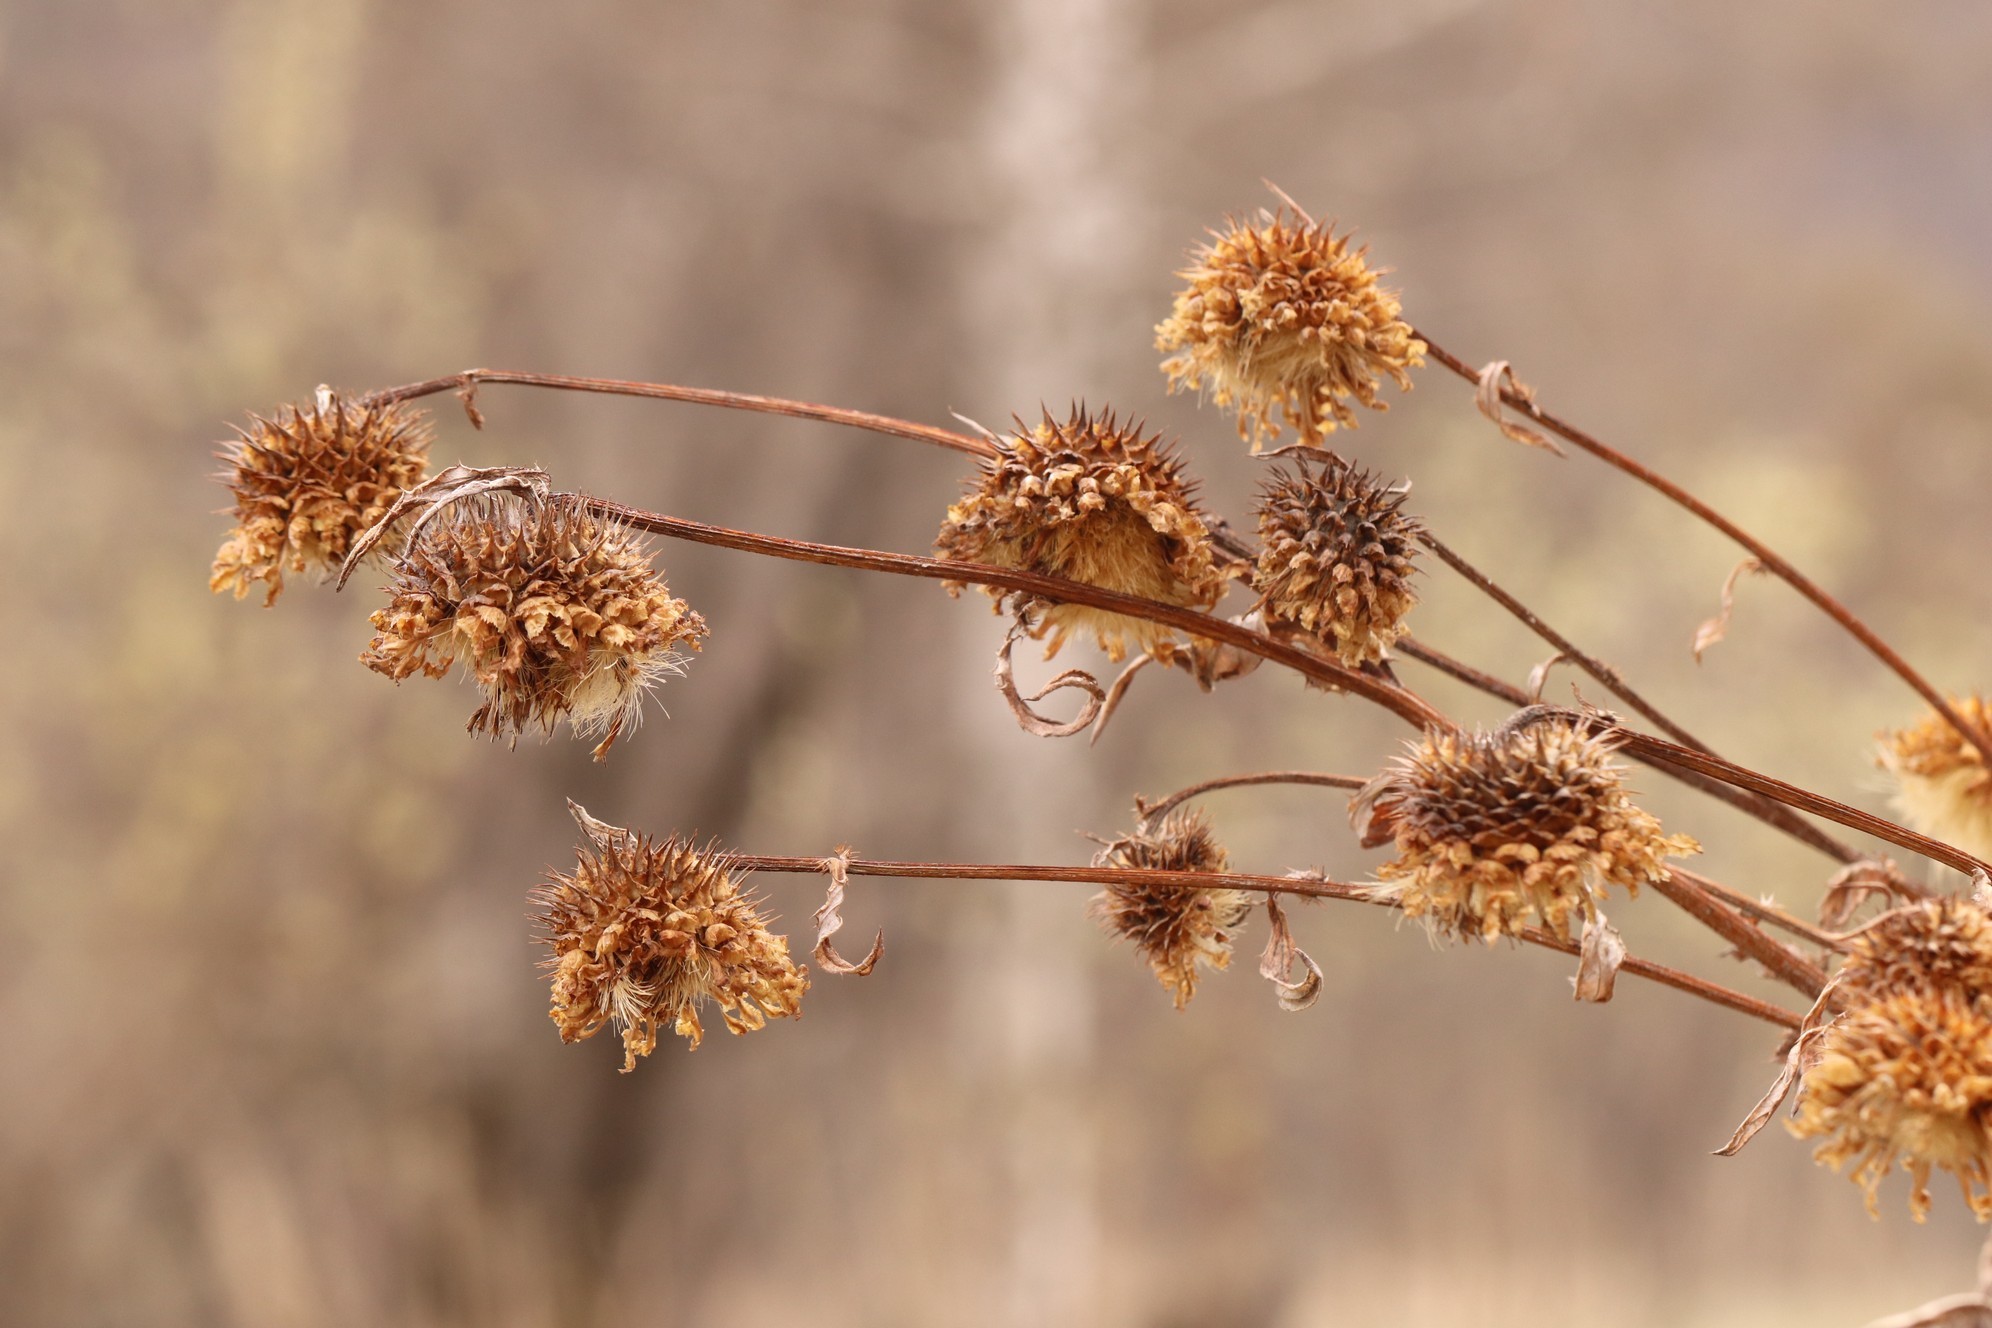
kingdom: Plantae
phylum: Tracheophyta
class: Magnoliopsida
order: Asterales
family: Asteraceae
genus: Alfredia
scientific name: Alfredia cernua
